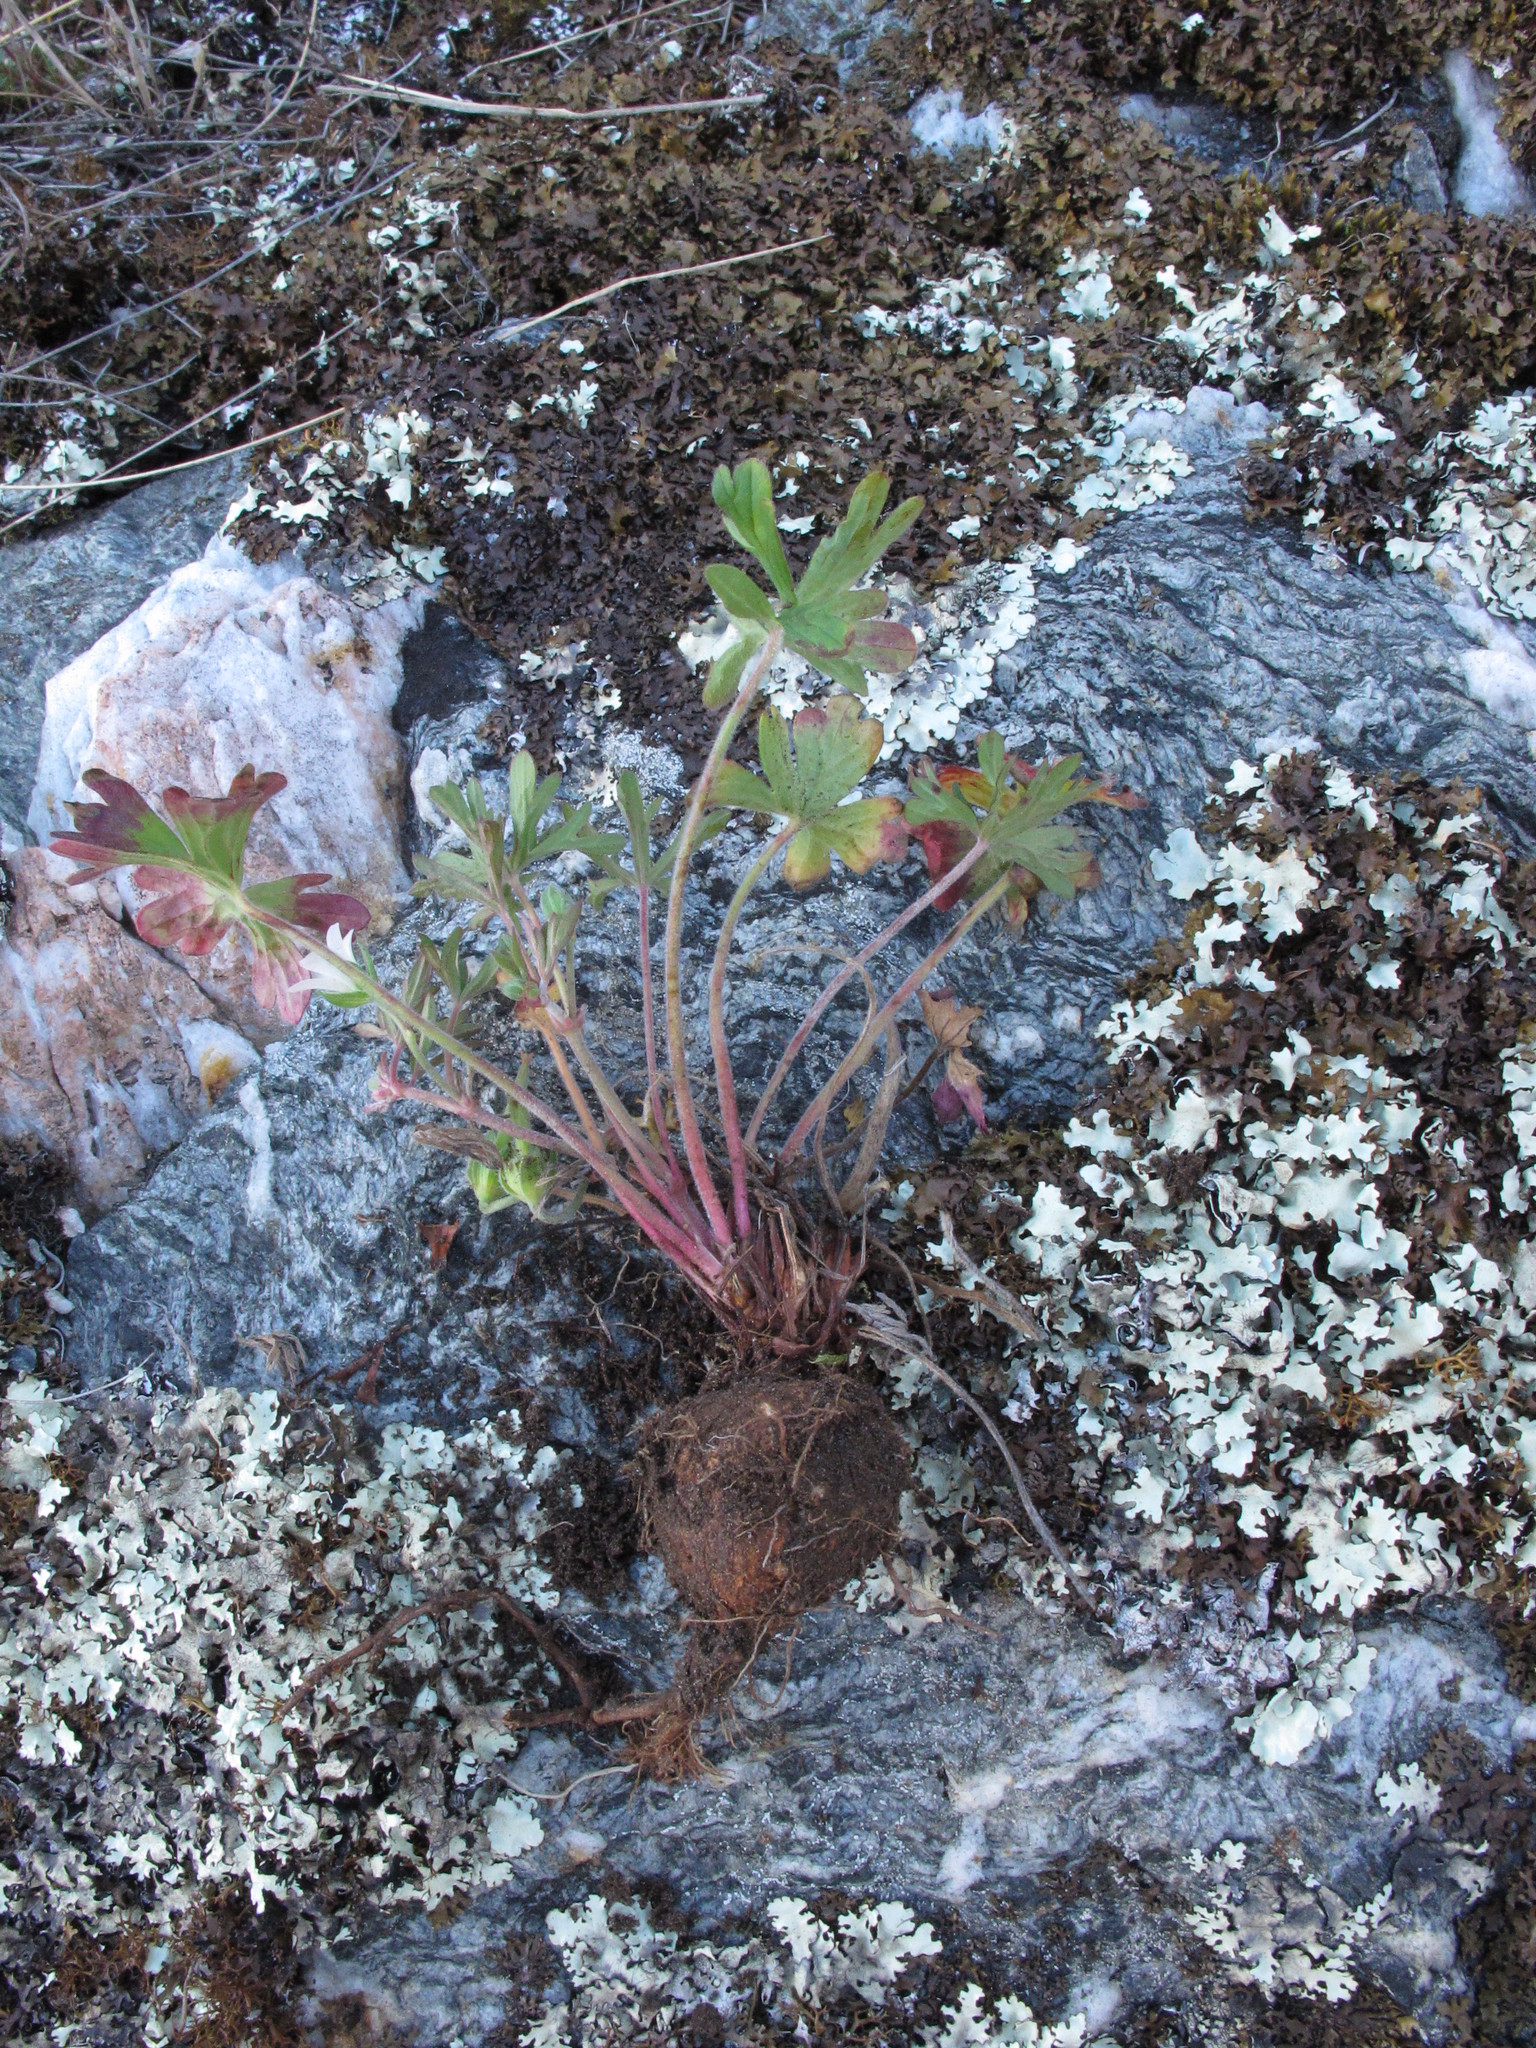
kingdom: Plantae
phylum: Tracheophyta
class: Magnoliopsida
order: Geraniales
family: Geraniaceae
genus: Geranium
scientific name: Geranium retrorsum
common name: New zealand geranium
